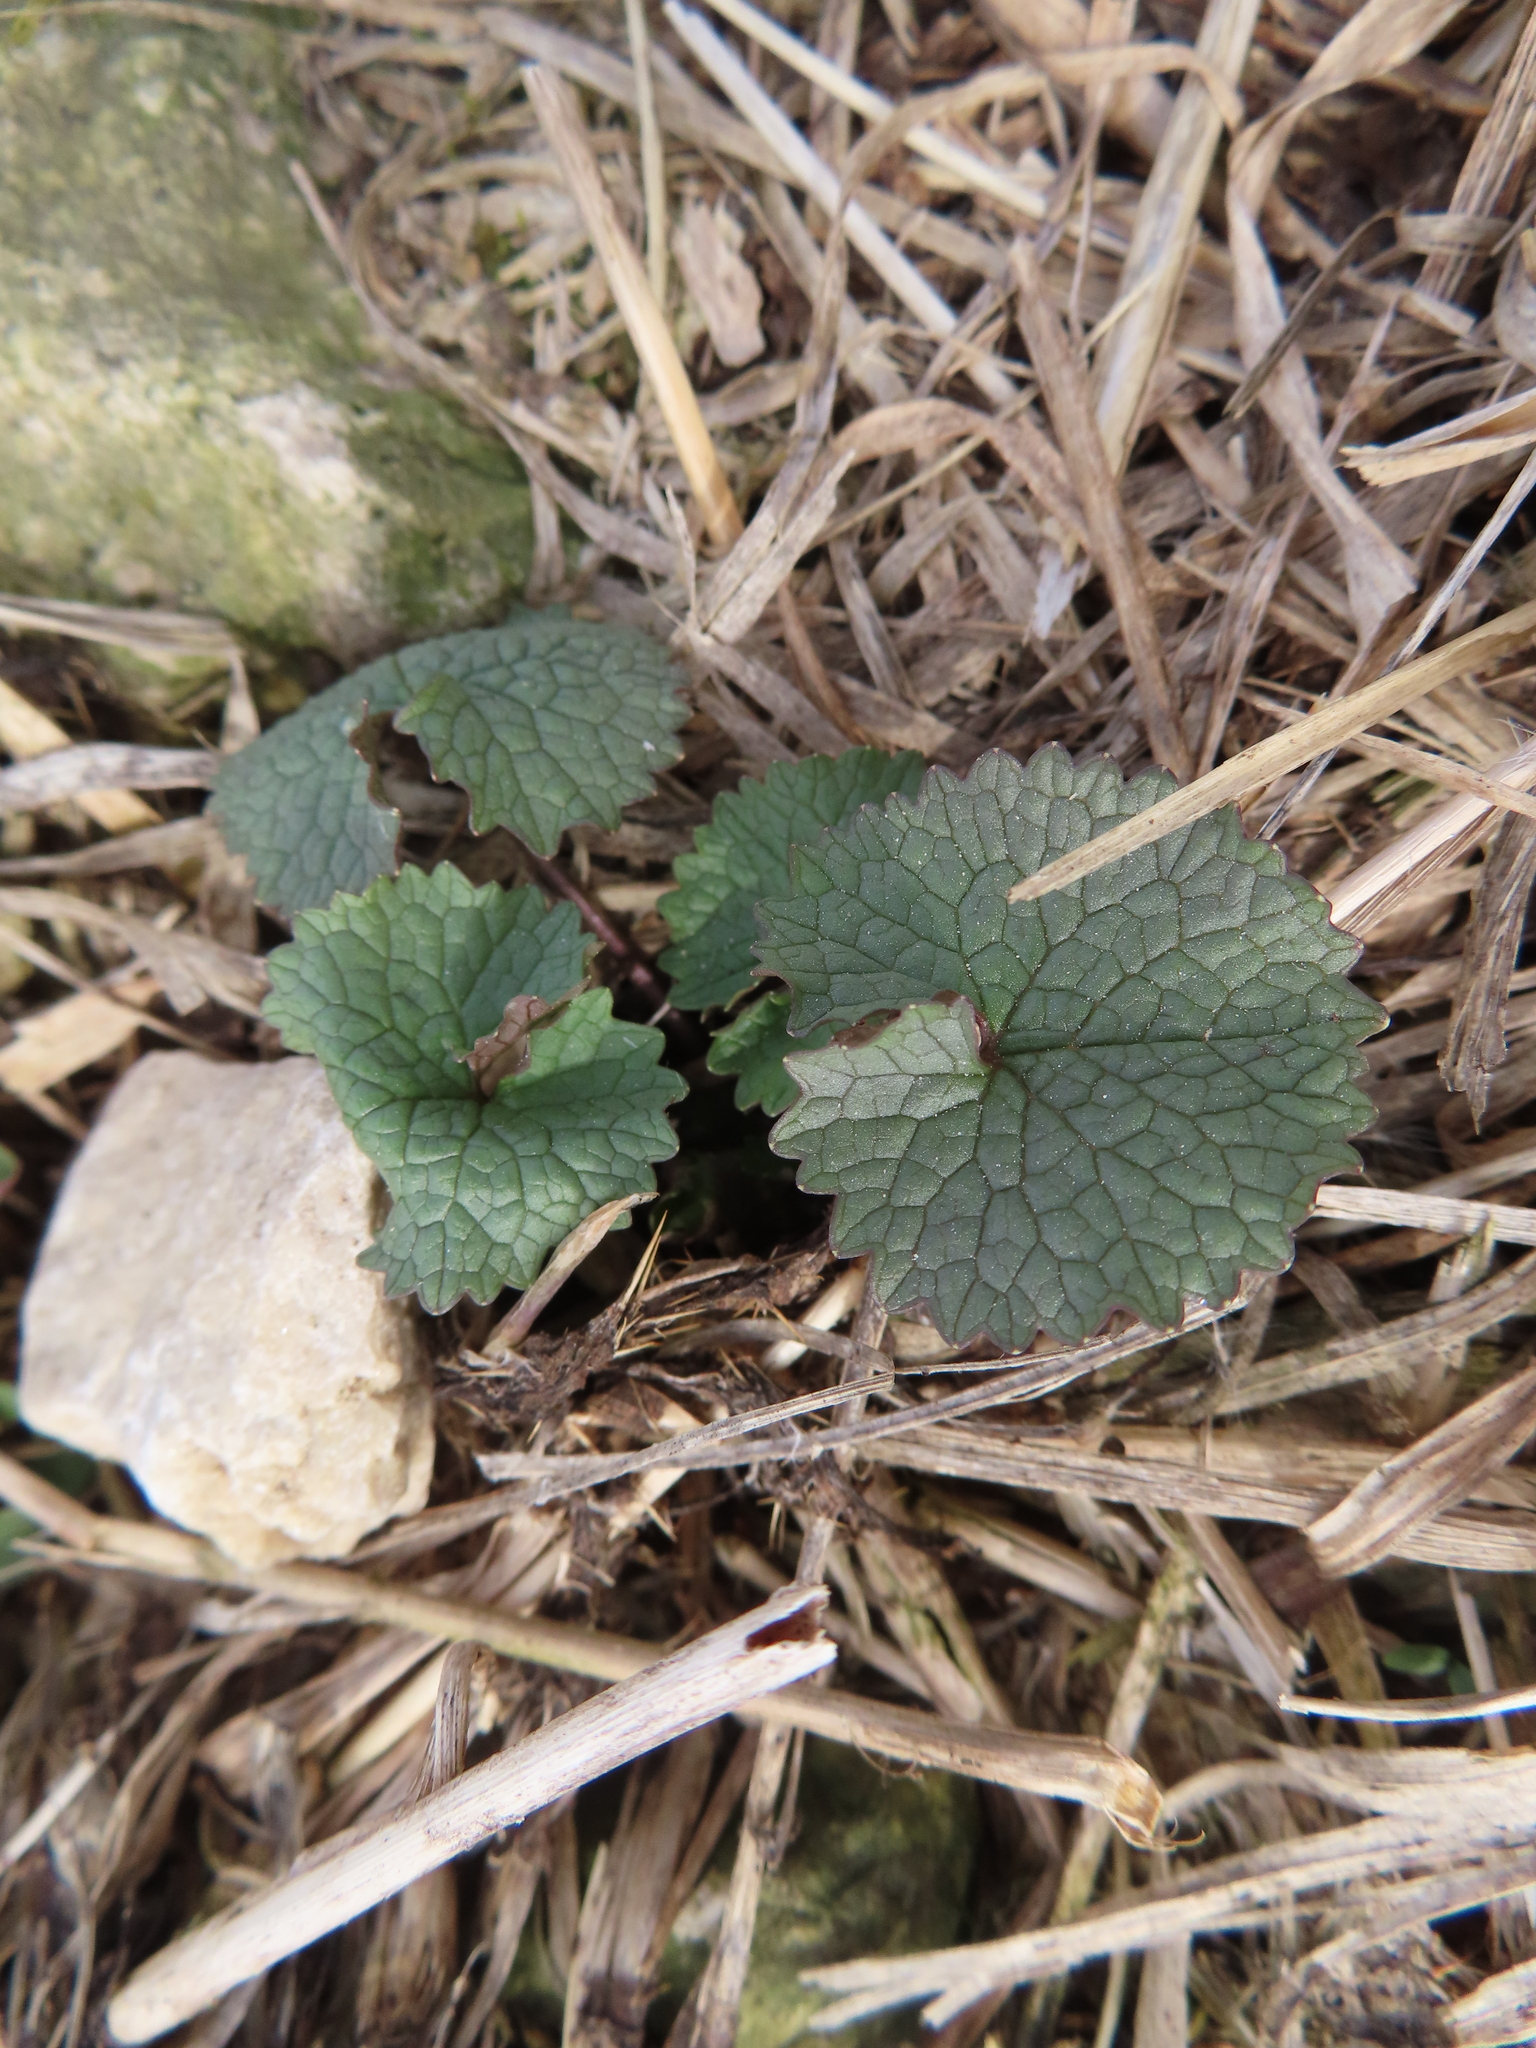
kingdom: Plantae
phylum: Tracheophyta
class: Magnoliopsida
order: Brassicales
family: Brassicaceae
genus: Alliaria
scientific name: Alliaria petiolata
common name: Garlic mustard
